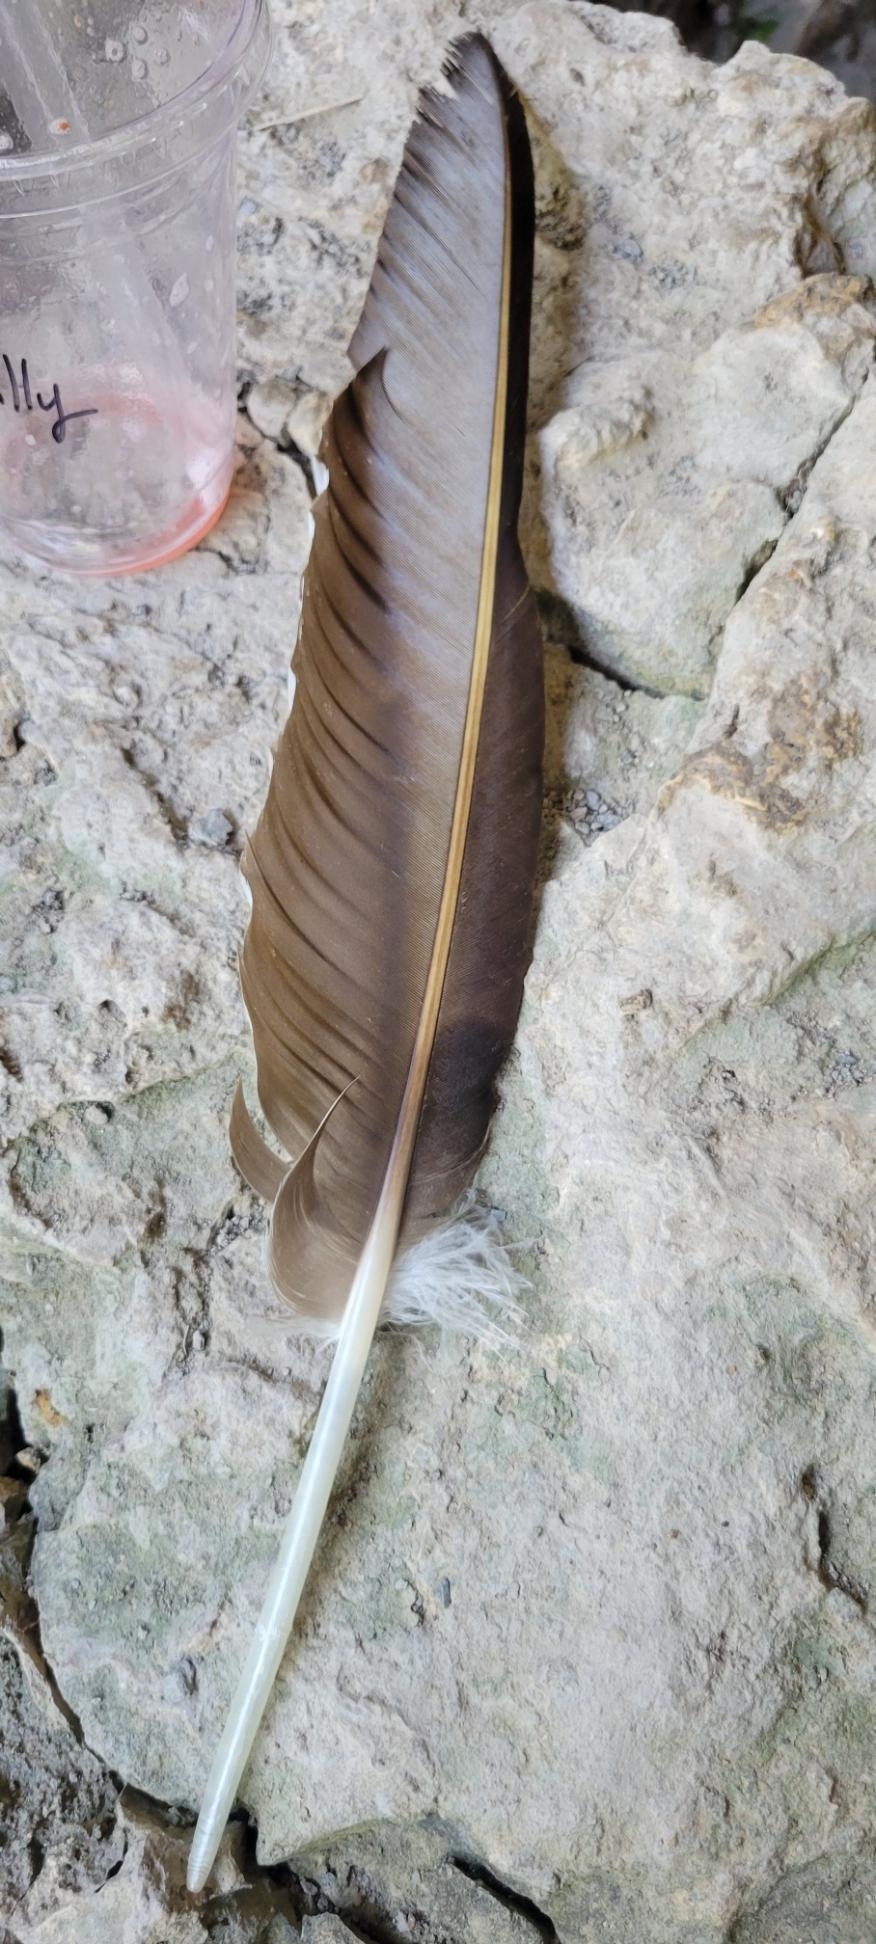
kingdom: Animalia
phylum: Chordata
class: Aves
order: Accipitriformes
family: Cathartidae
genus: Cathartes
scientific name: Cathartes aura
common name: Turkey vulture
